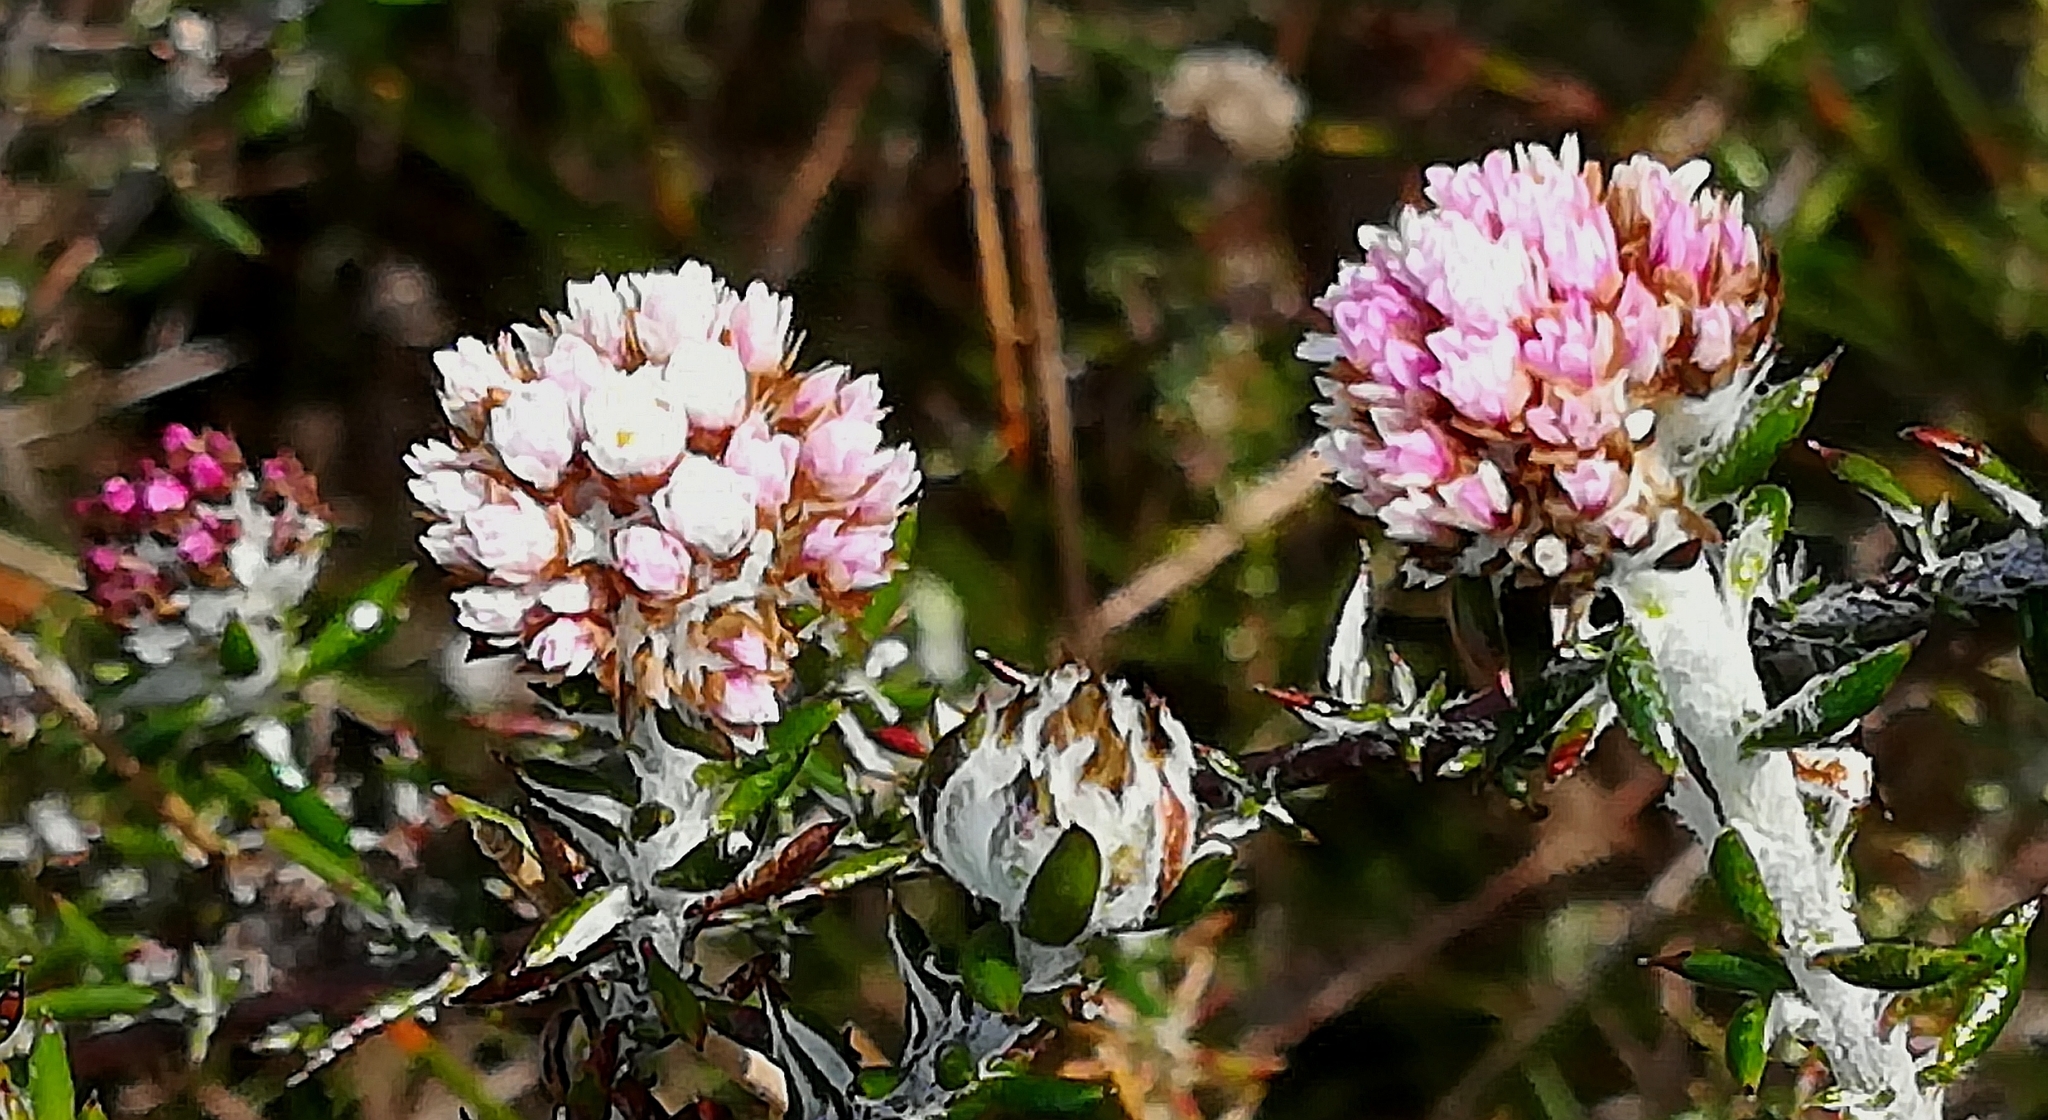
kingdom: Plantae
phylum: Tracheophyta
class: Magnoliopsida
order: Asterales
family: Asteraceae
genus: Metalasia
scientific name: Metalasia divergens
